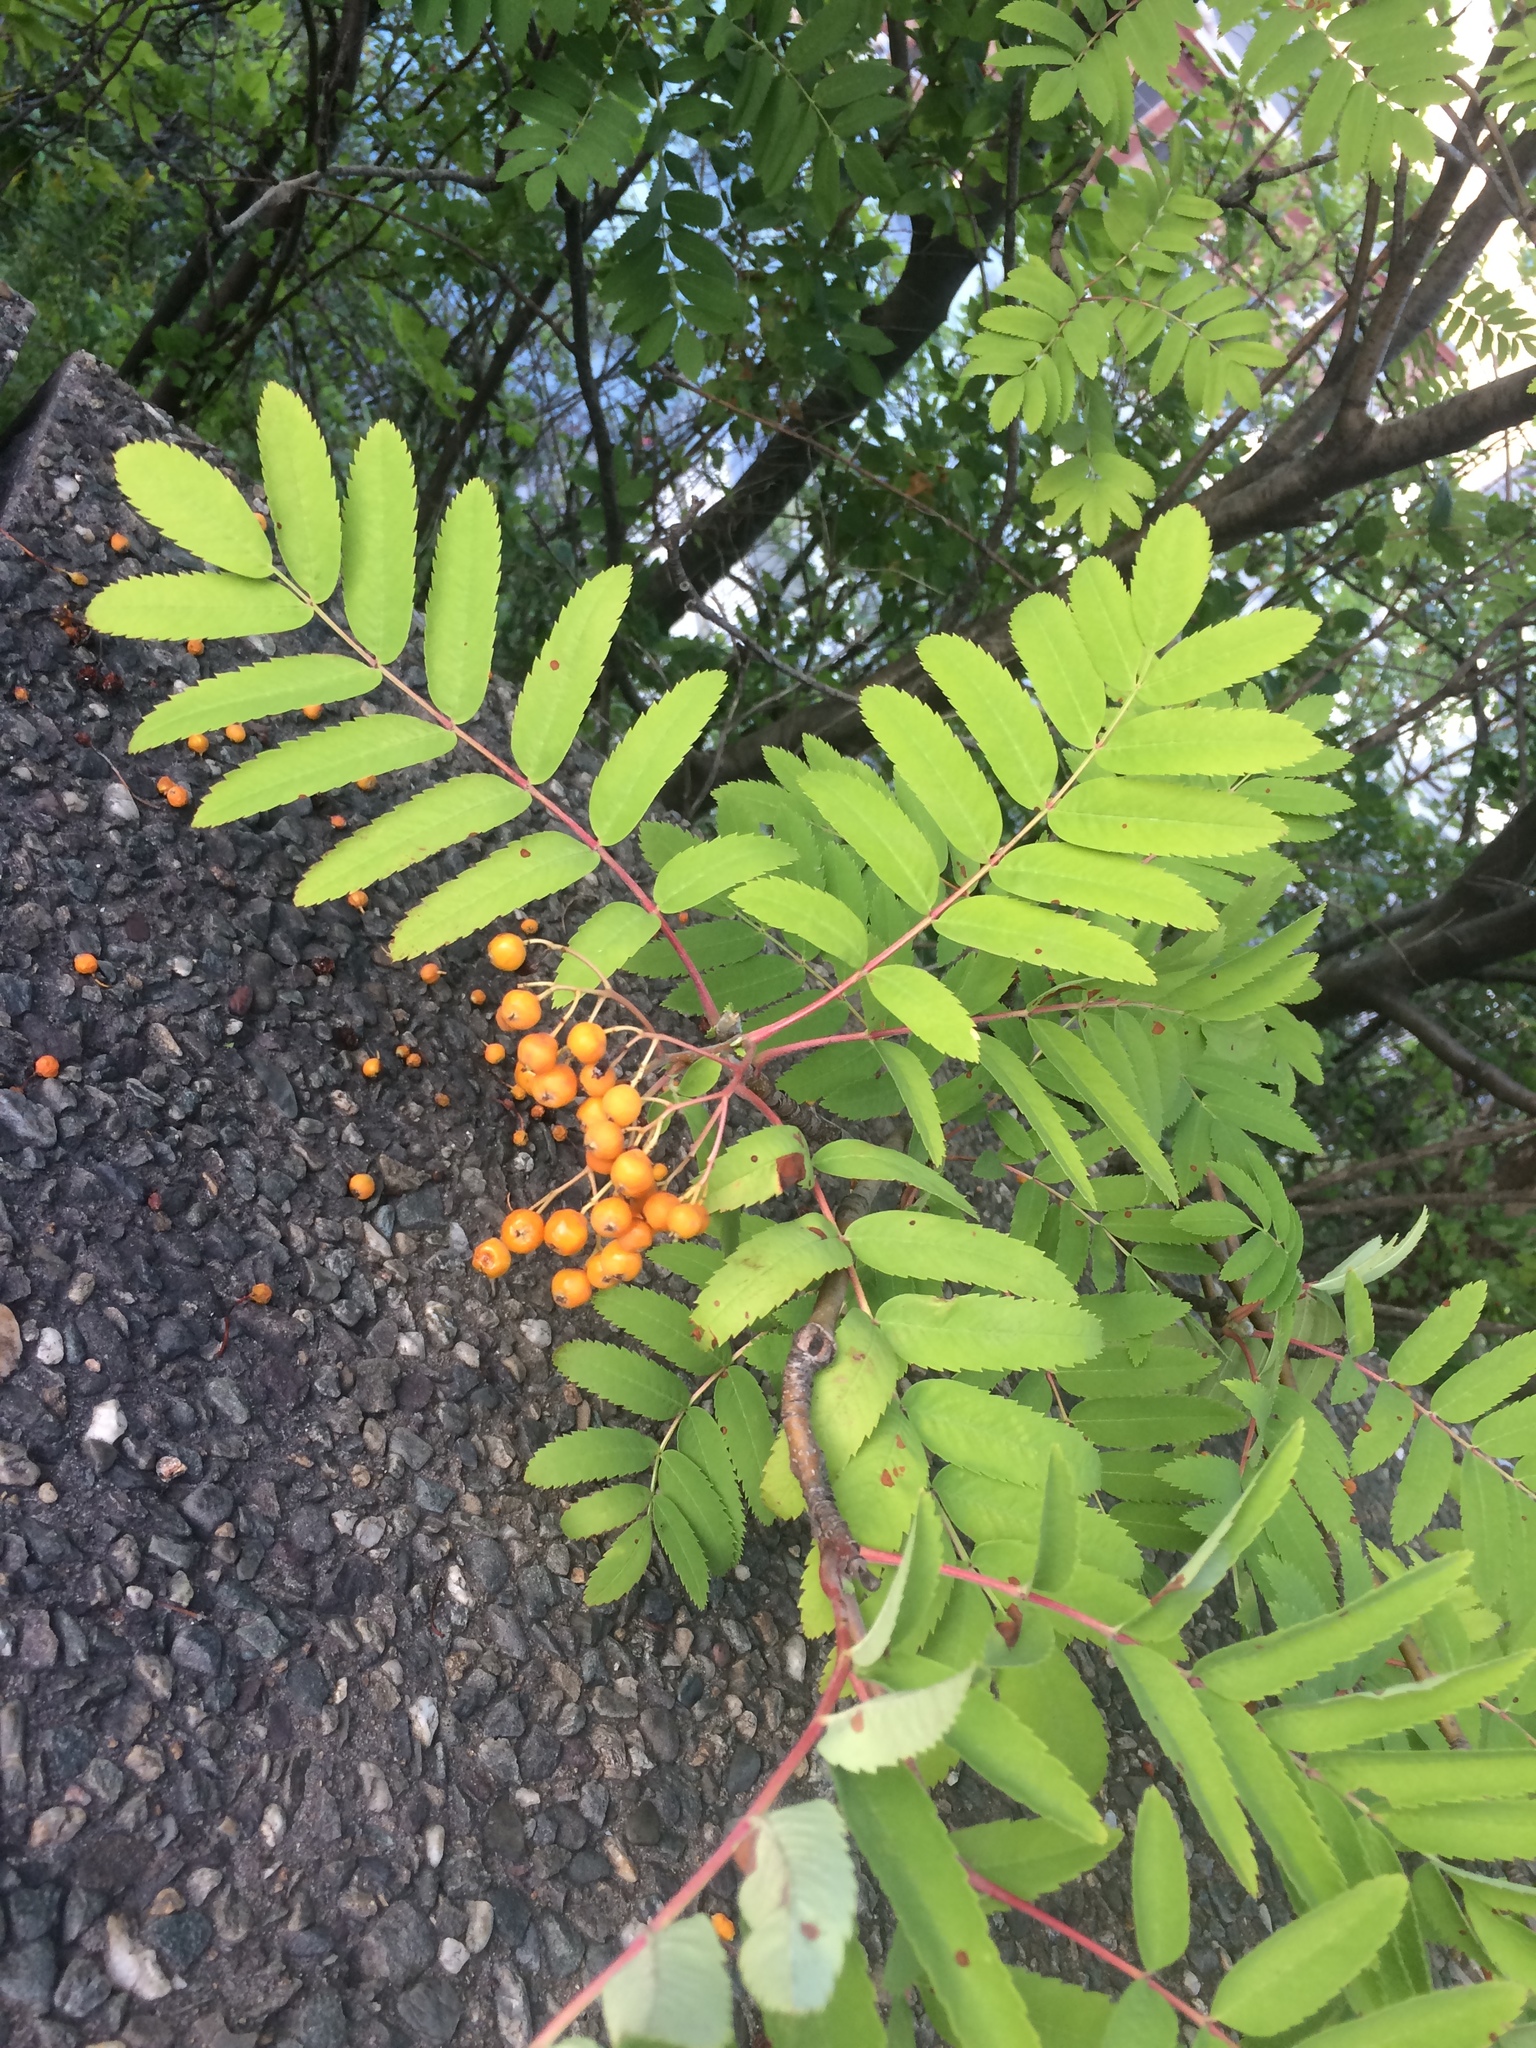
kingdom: Plantae
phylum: Tracheophyta
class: Magnoliopsida
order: Rosales
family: Rosaceae
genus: Sorbus
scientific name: Sorbus aucuparia
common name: Rowan
